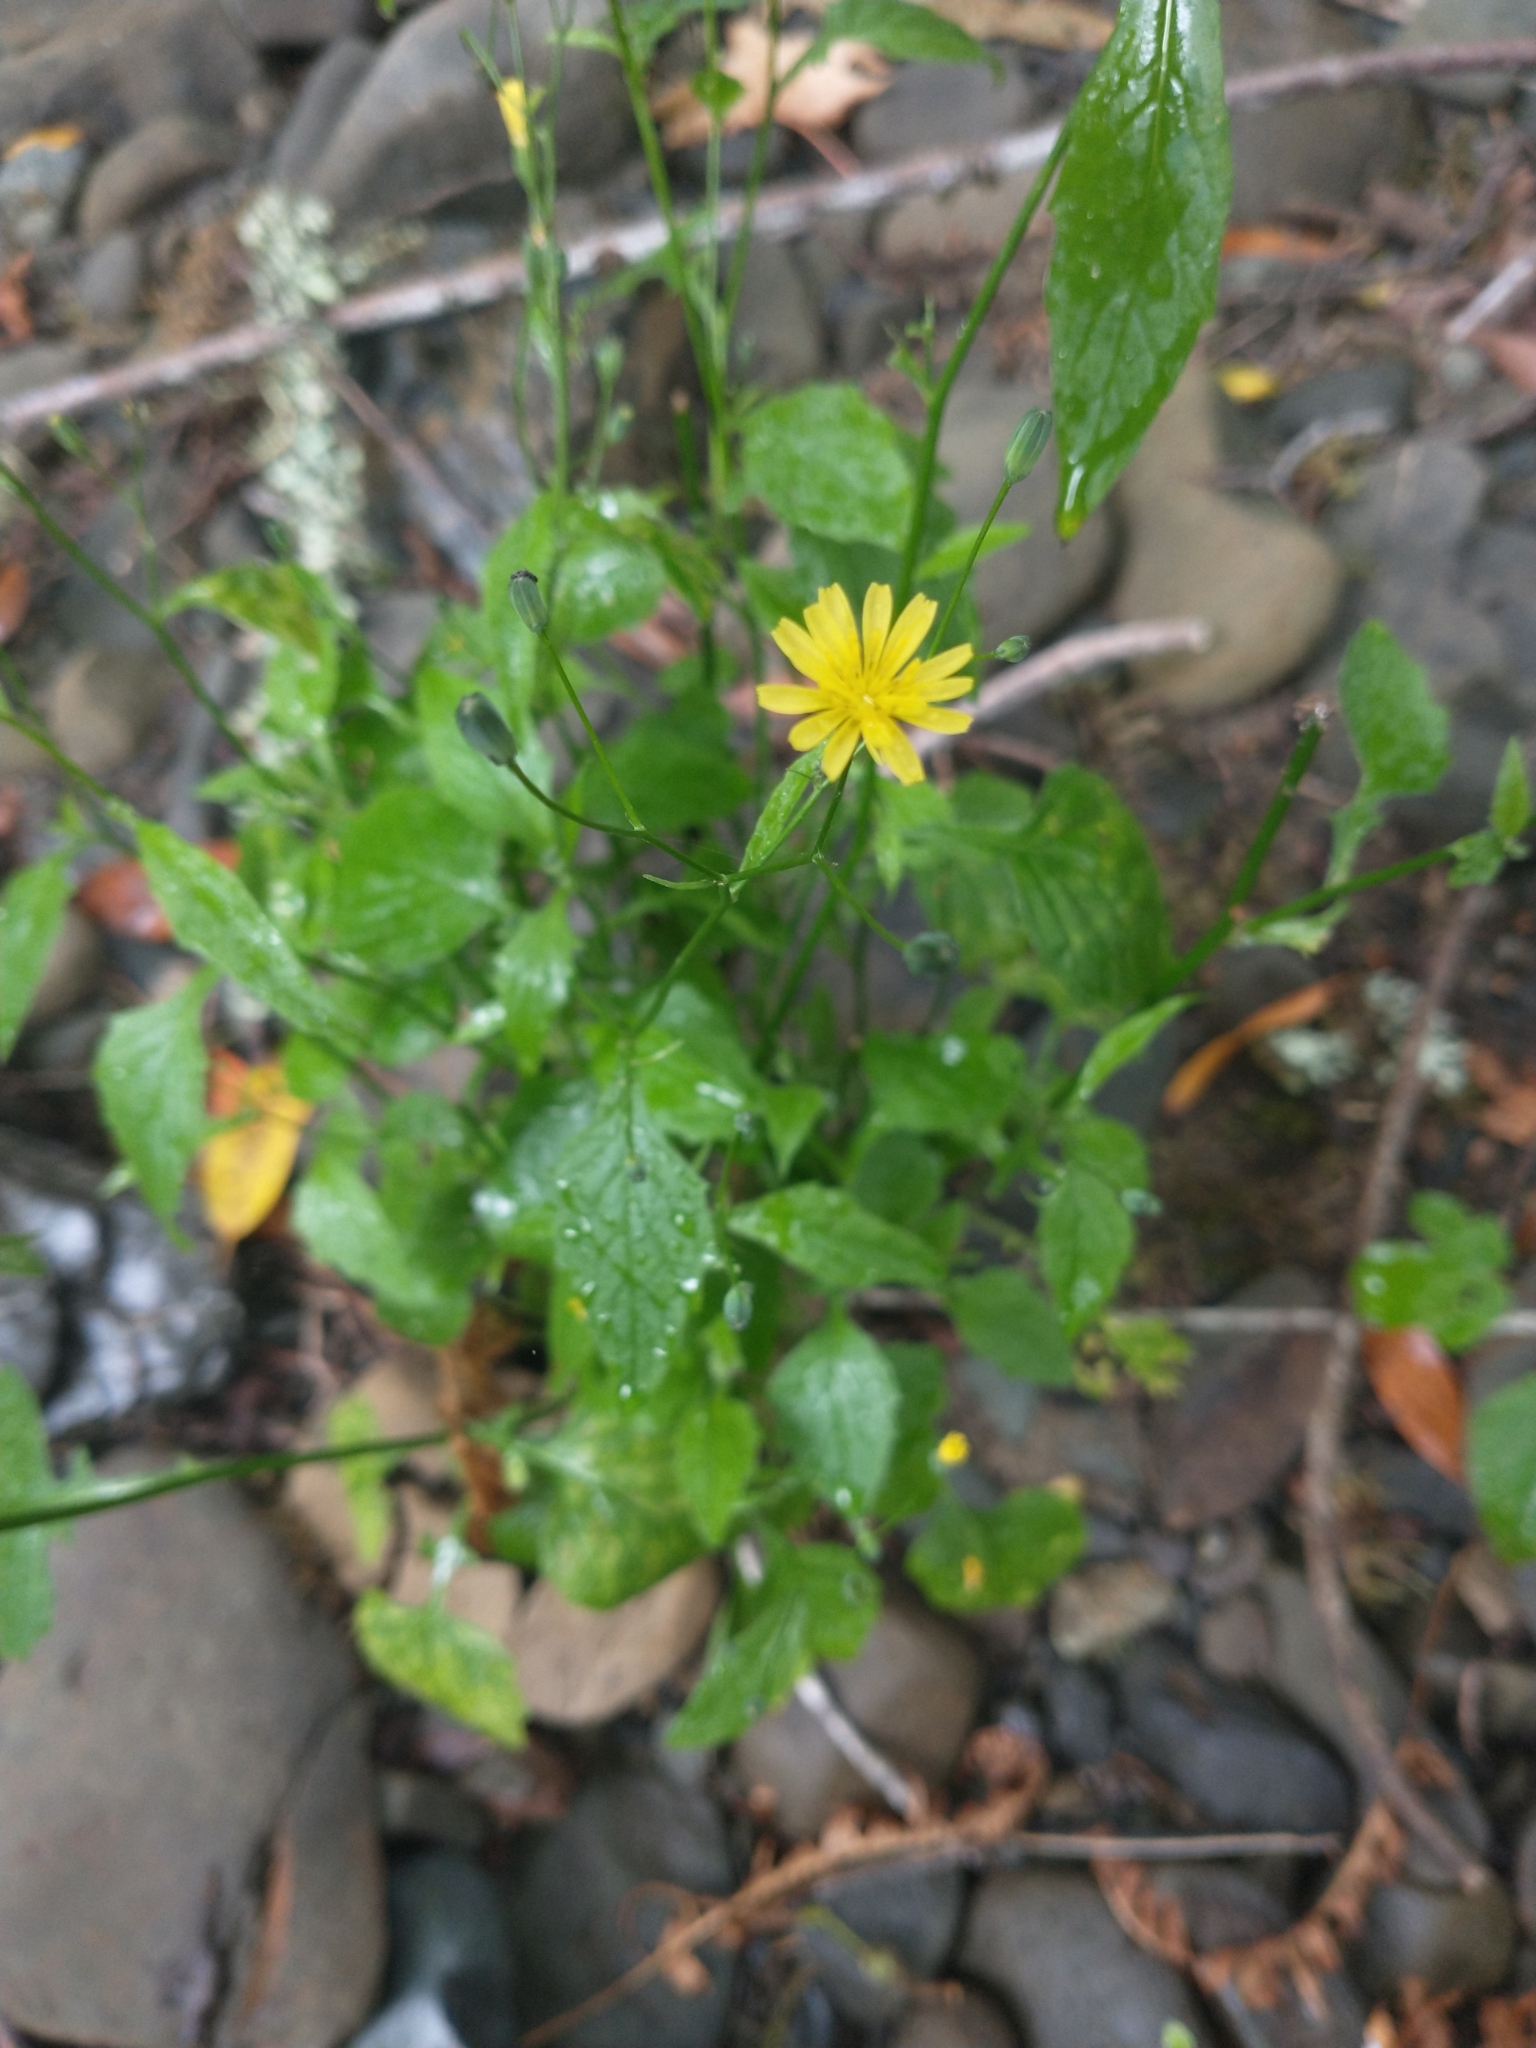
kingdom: Plantae
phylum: Tracheophyta
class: Magnoliopsida
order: Asterales
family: Asteraceae
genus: Lapsana
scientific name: Lapsana communis
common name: Nipplewort
